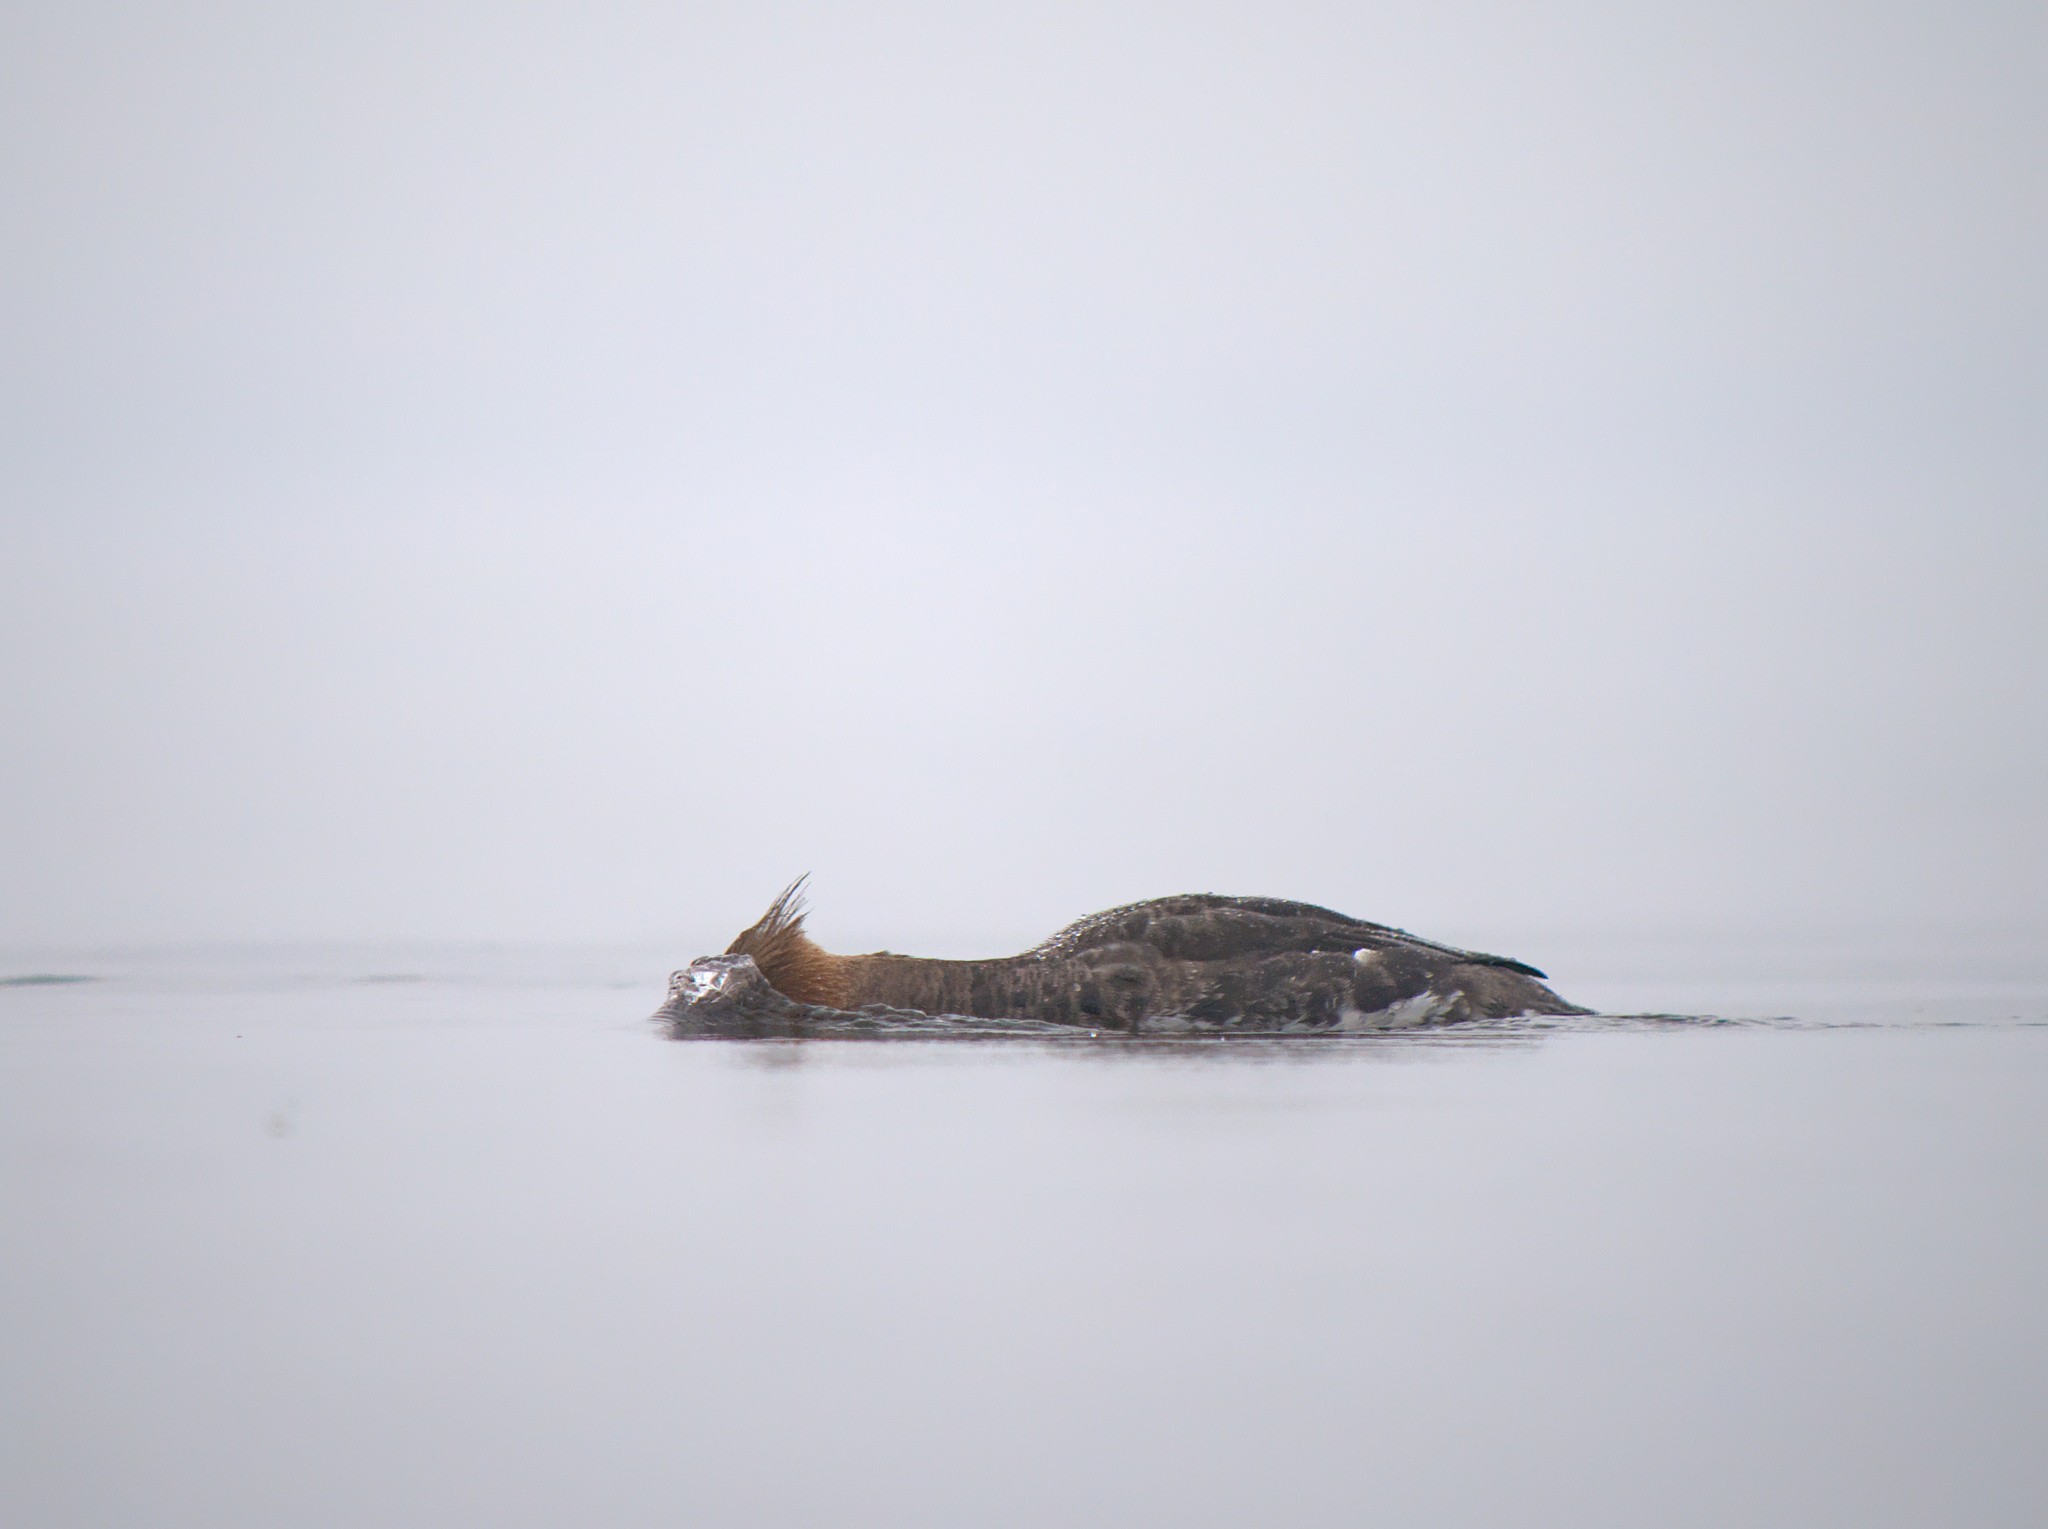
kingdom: Animalia
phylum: Chordata
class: Aves
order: Anseriformes
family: Anatidae
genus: Mergus
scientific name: Mergus serrator
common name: Red-breasted merganser
